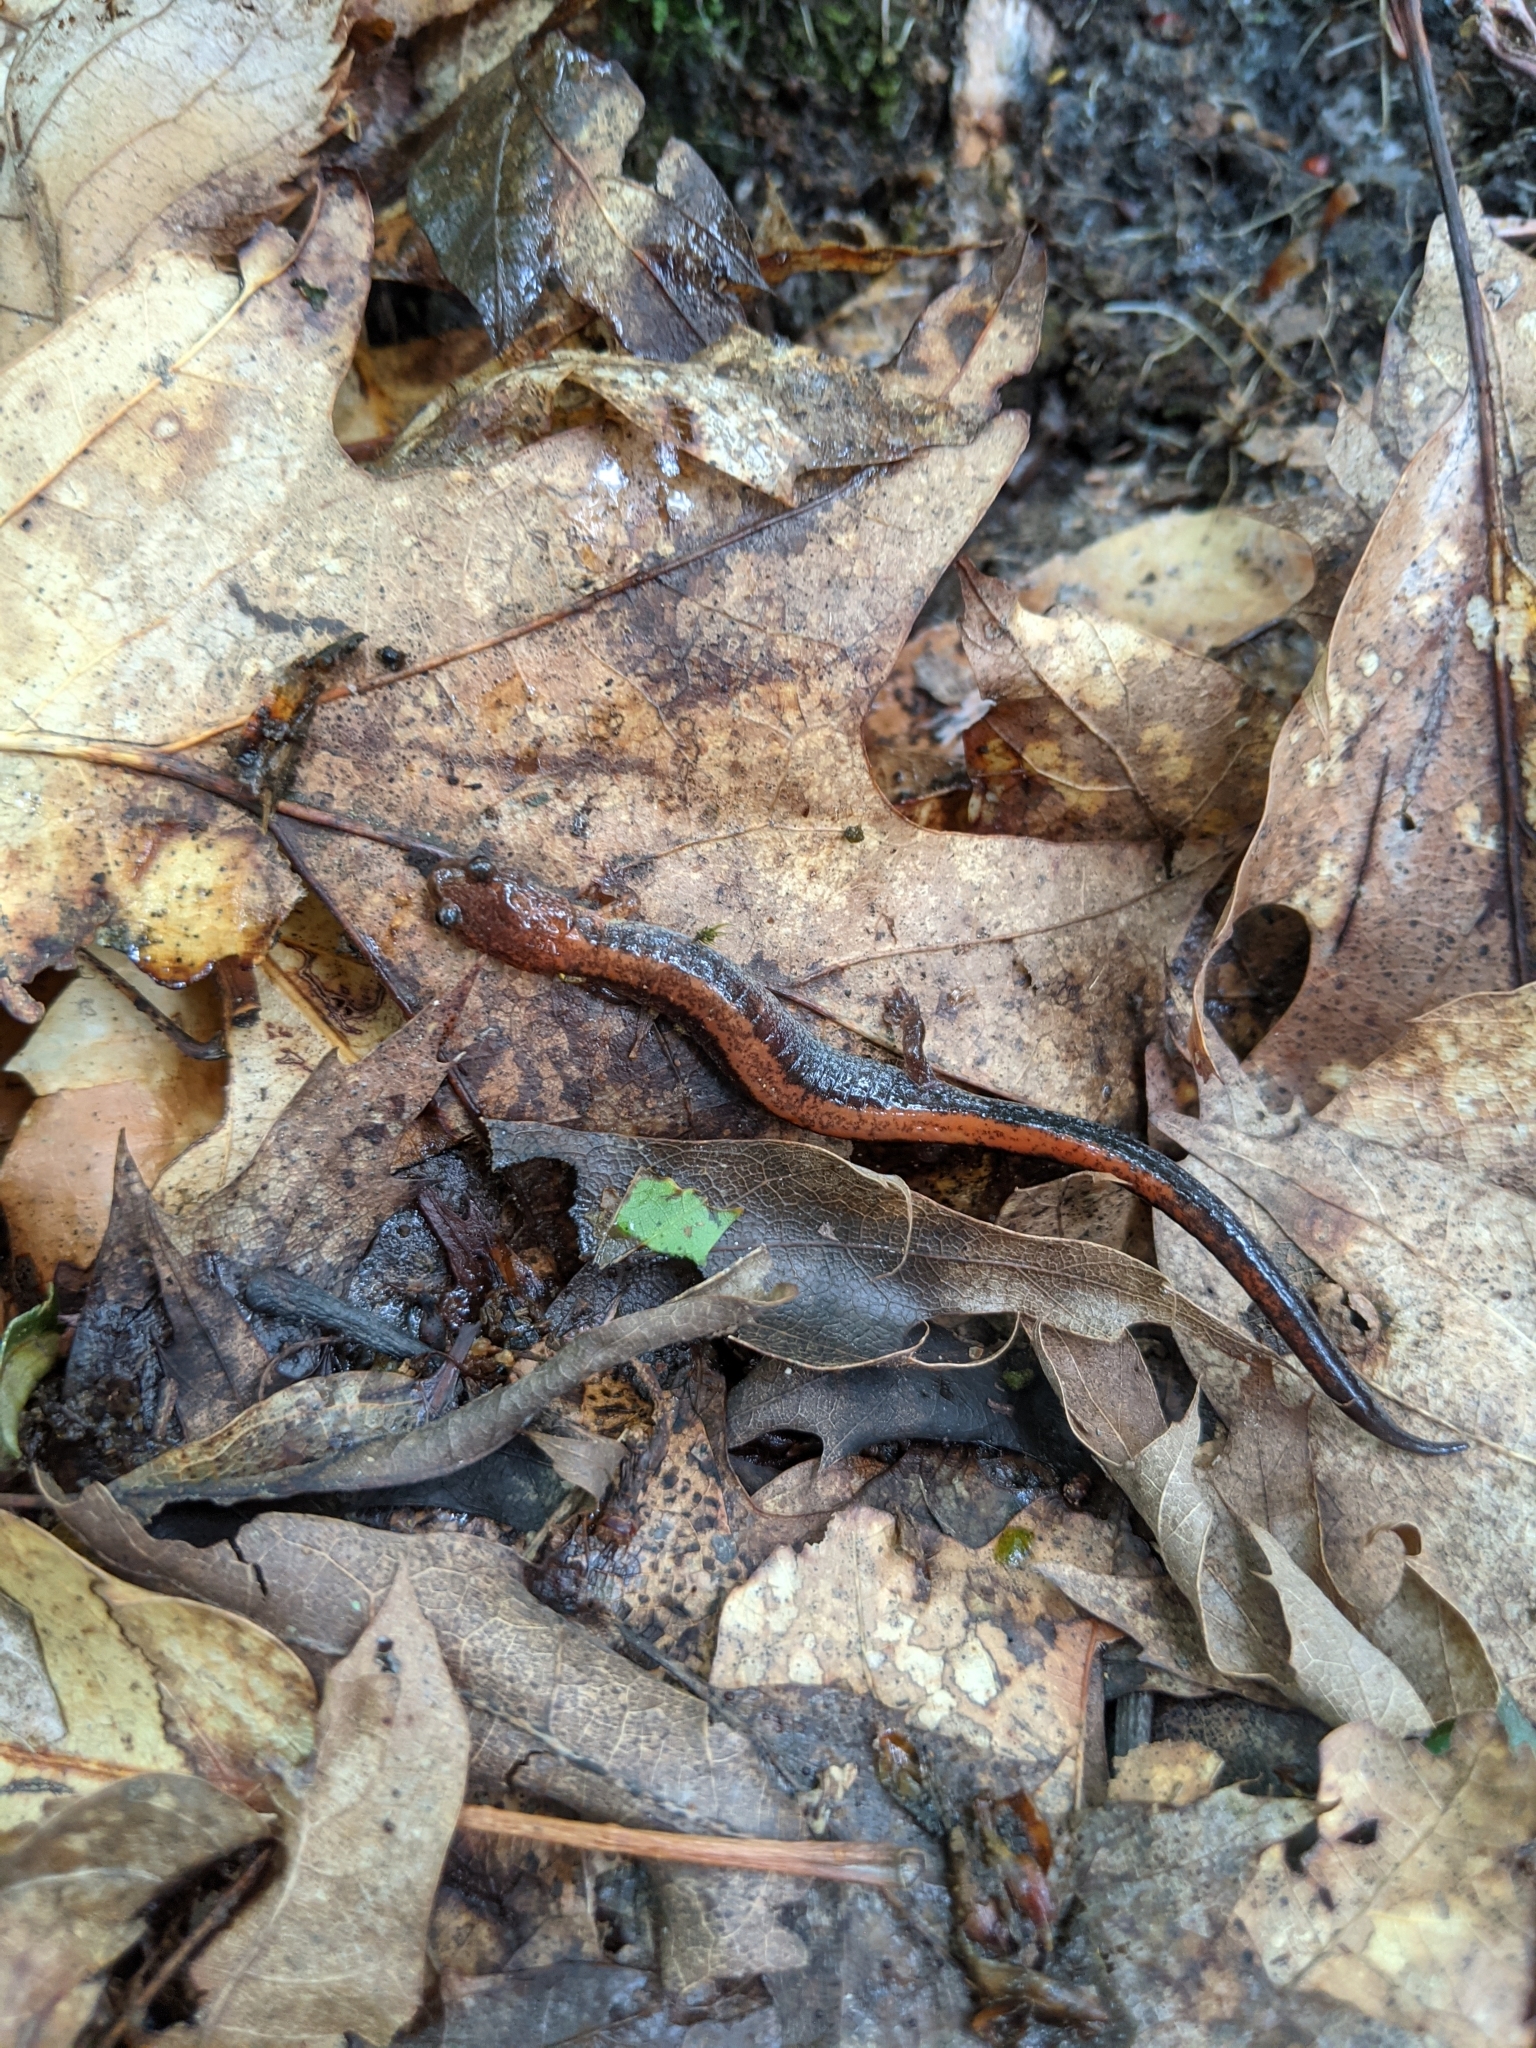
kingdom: Animalia
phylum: Chordata
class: Amphibia
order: Caudata
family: Plethodontidae
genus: Plethodon
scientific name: Plethodon cinereus
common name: Redback salamander
